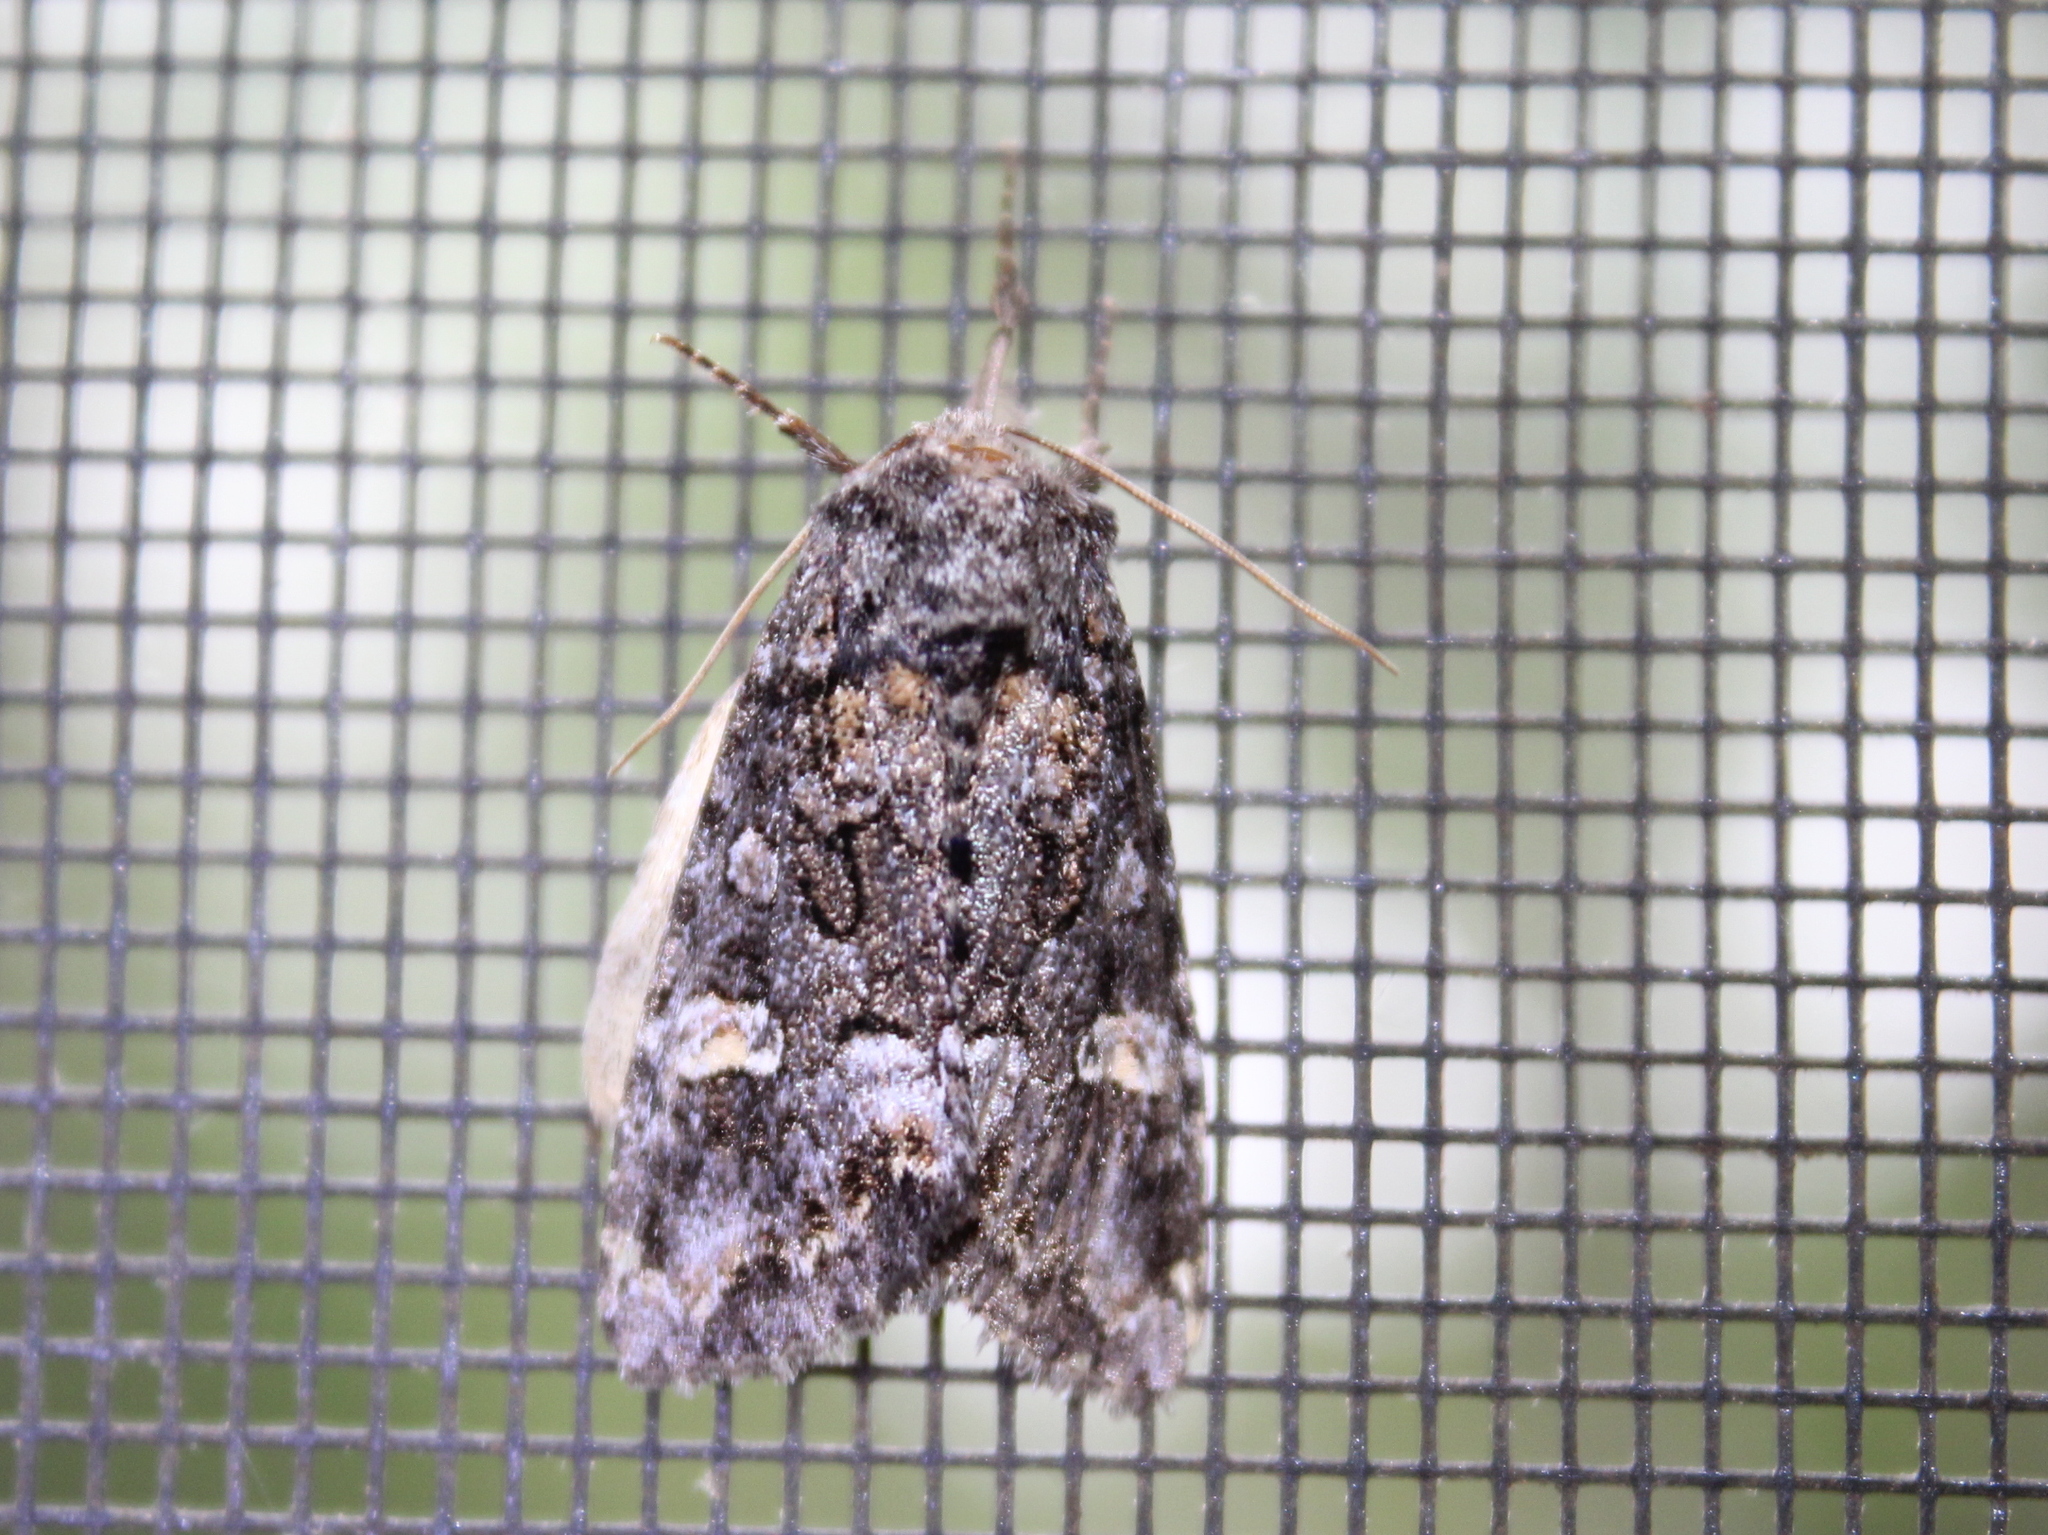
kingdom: Animalia
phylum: Arthropoda
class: Insecta
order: Lepidoptera
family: Noctuidae
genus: Spiramater
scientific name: Spiramater lutra
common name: Otter spiramater moth
